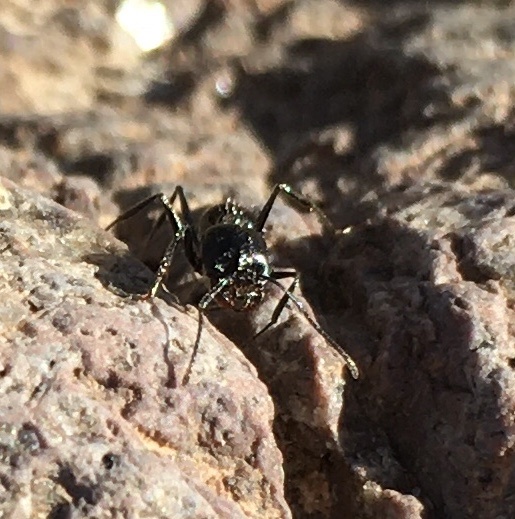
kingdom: Animalia
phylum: Arthropoda
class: Insecta
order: Hymenoptera
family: Formicidae
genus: Messor
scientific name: Messor pergandei
